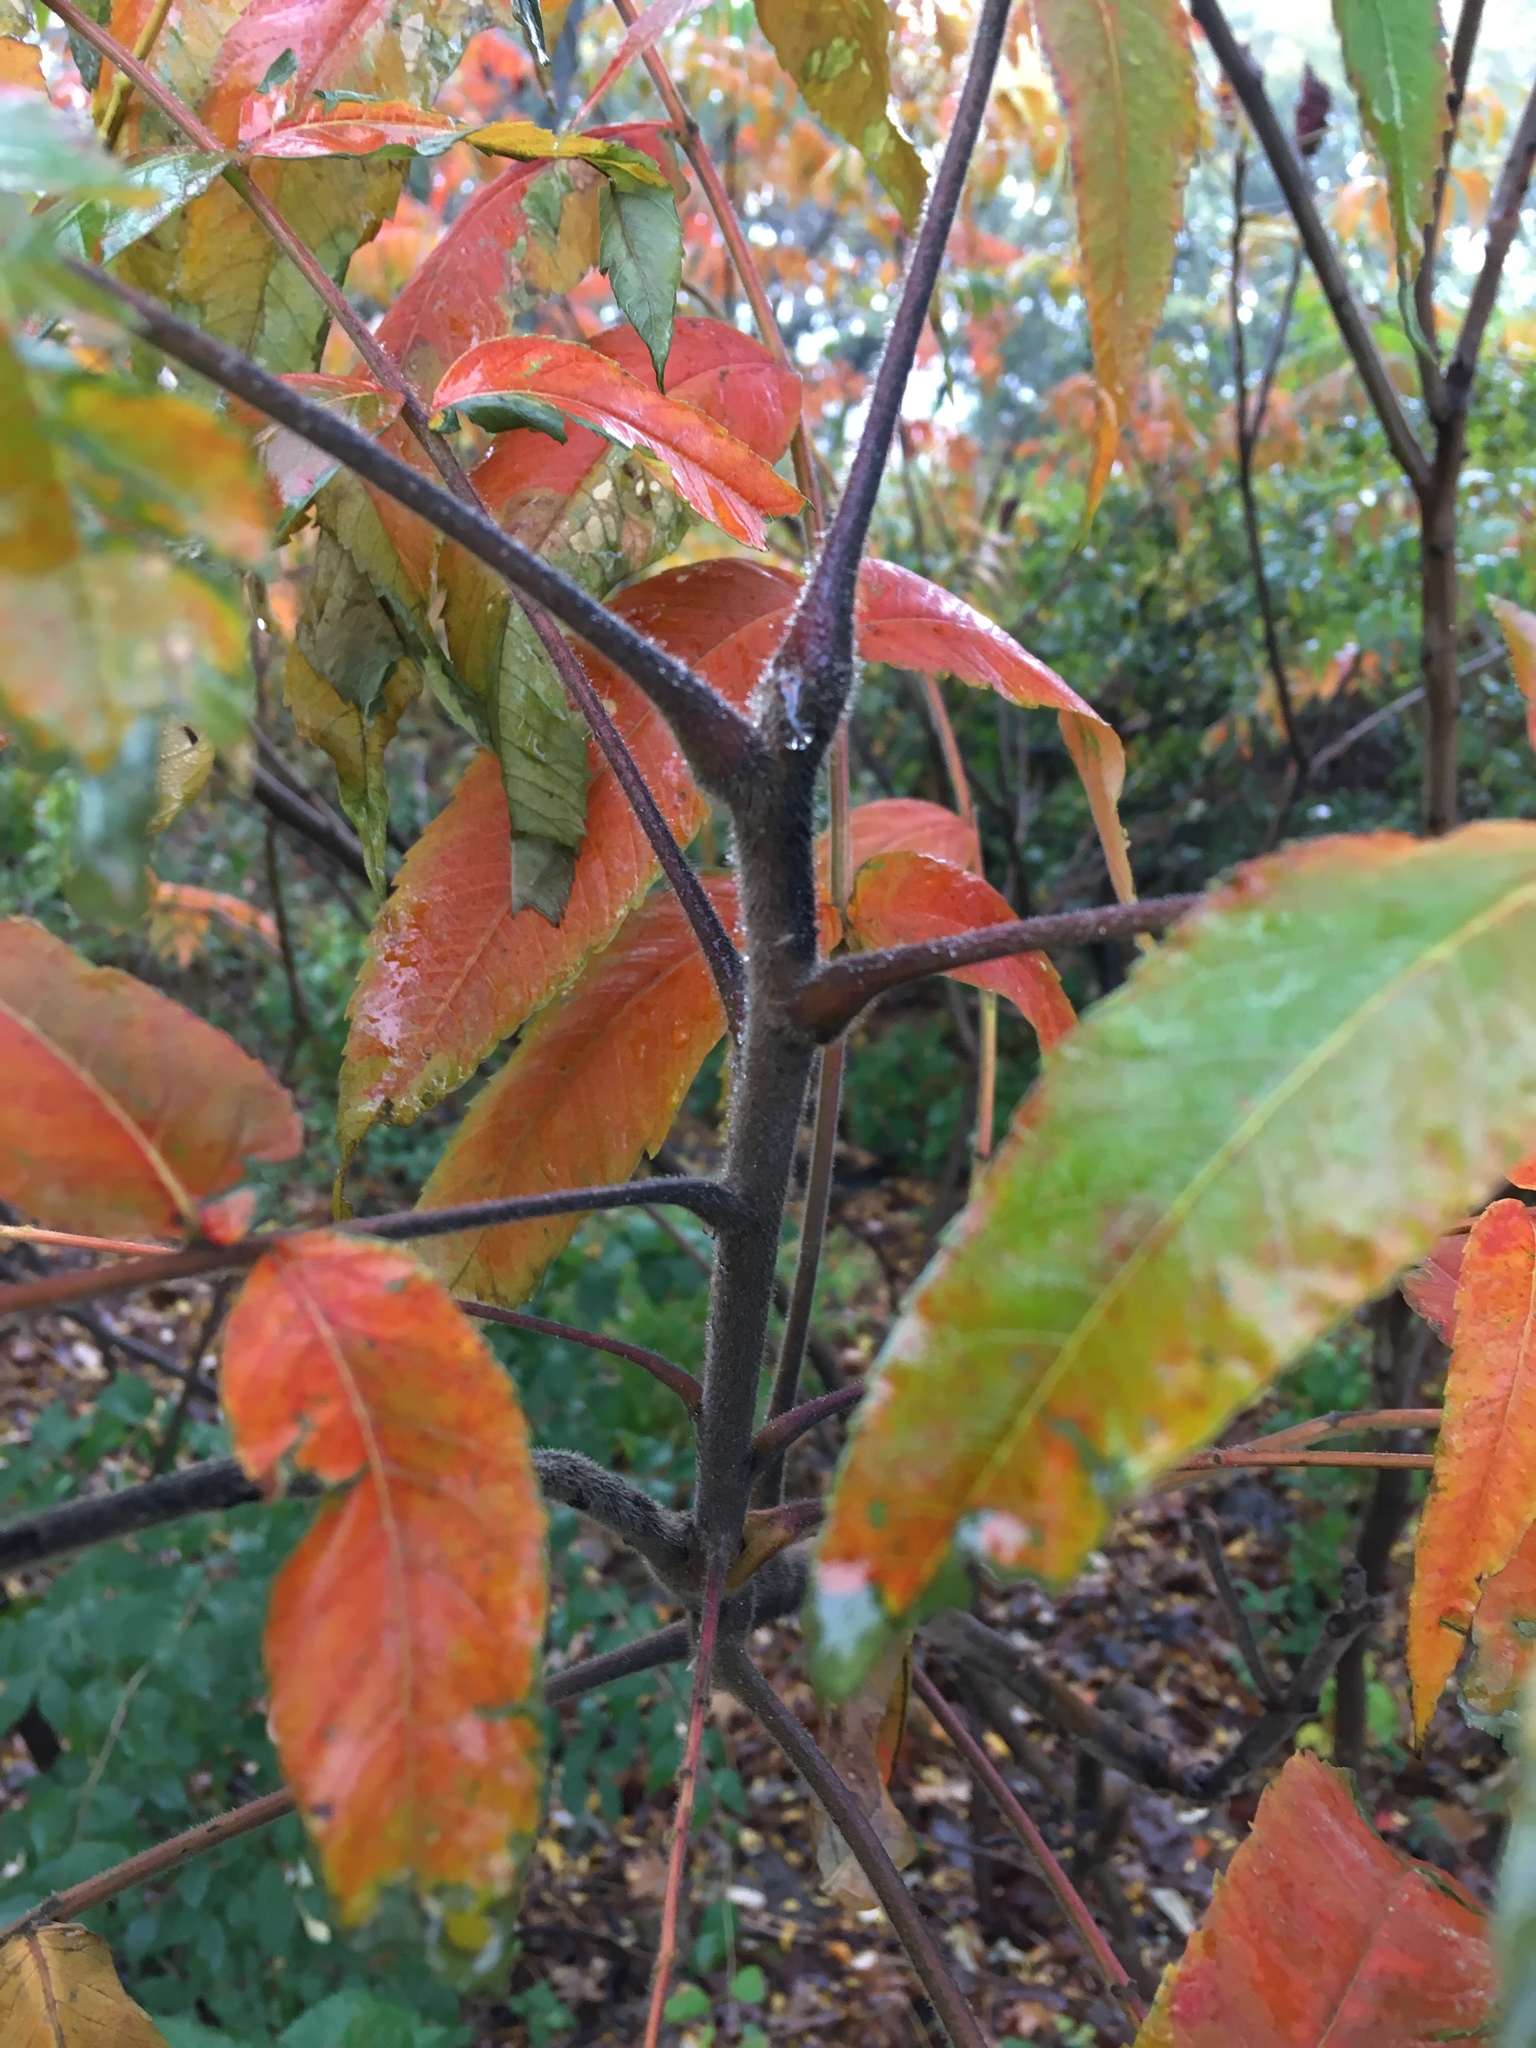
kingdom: Plantae
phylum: Tracheophyta
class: Magnoliopsida
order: Sapindales
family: Anacardiaceae
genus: Rhus
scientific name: Rhus typhina
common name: Staghorn sumac
